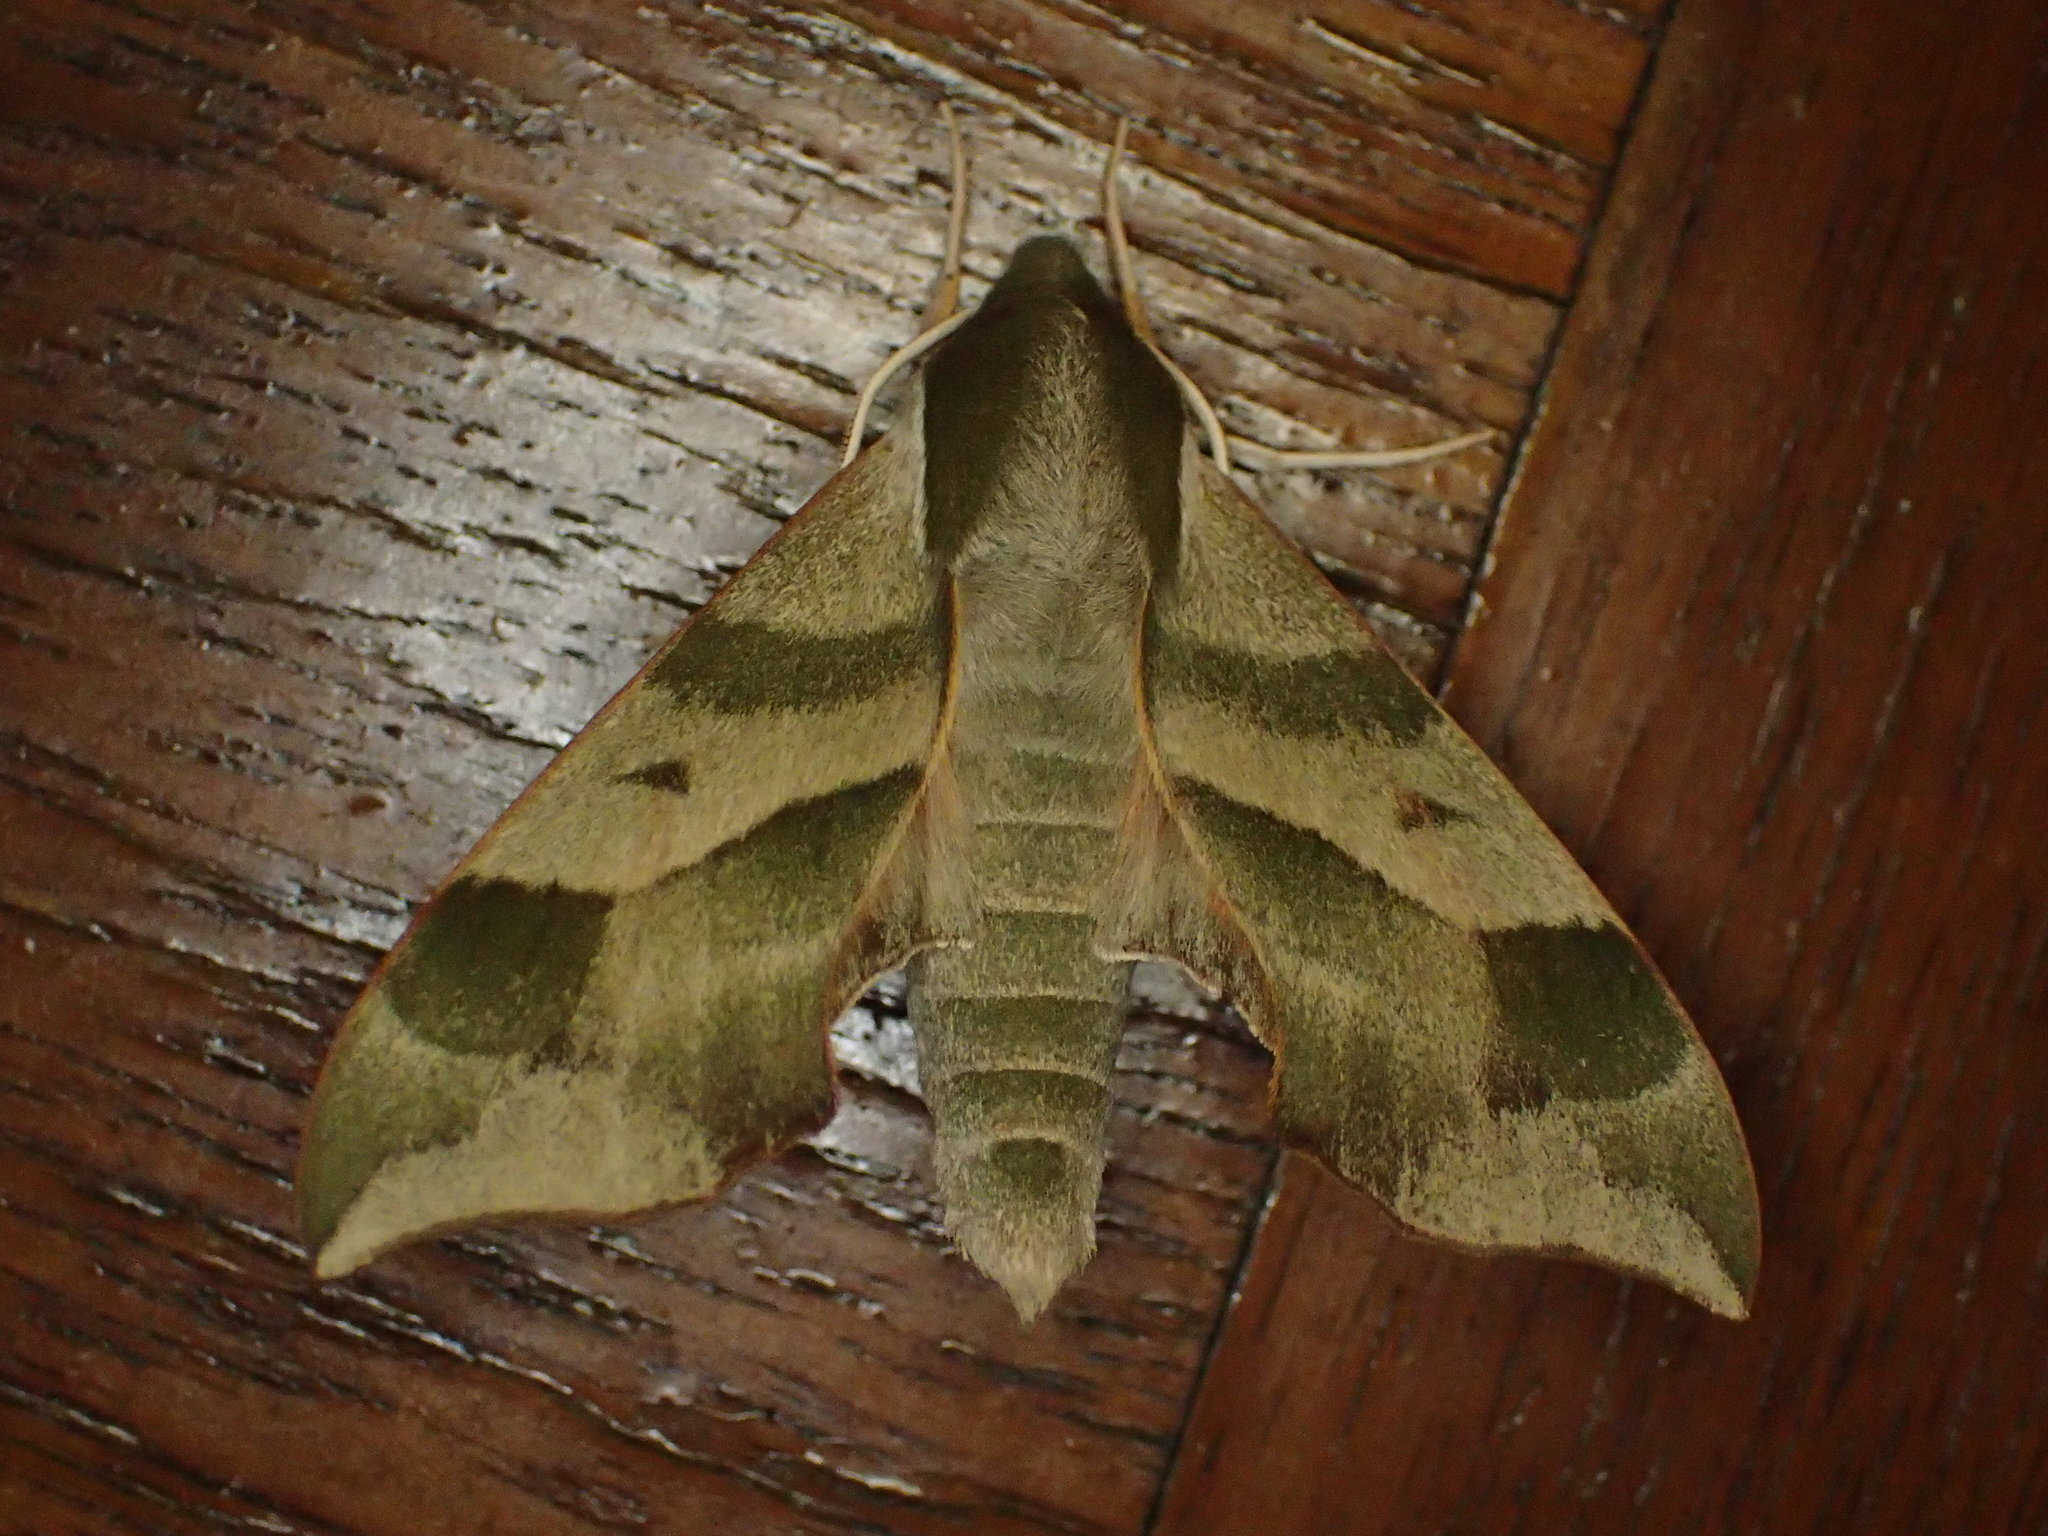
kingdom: Animalia
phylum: Arthropoda
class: Insecta
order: Lepidoptera
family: Sphingidae
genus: Darapsa
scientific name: Darapsa myron
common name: Hog sphinx
